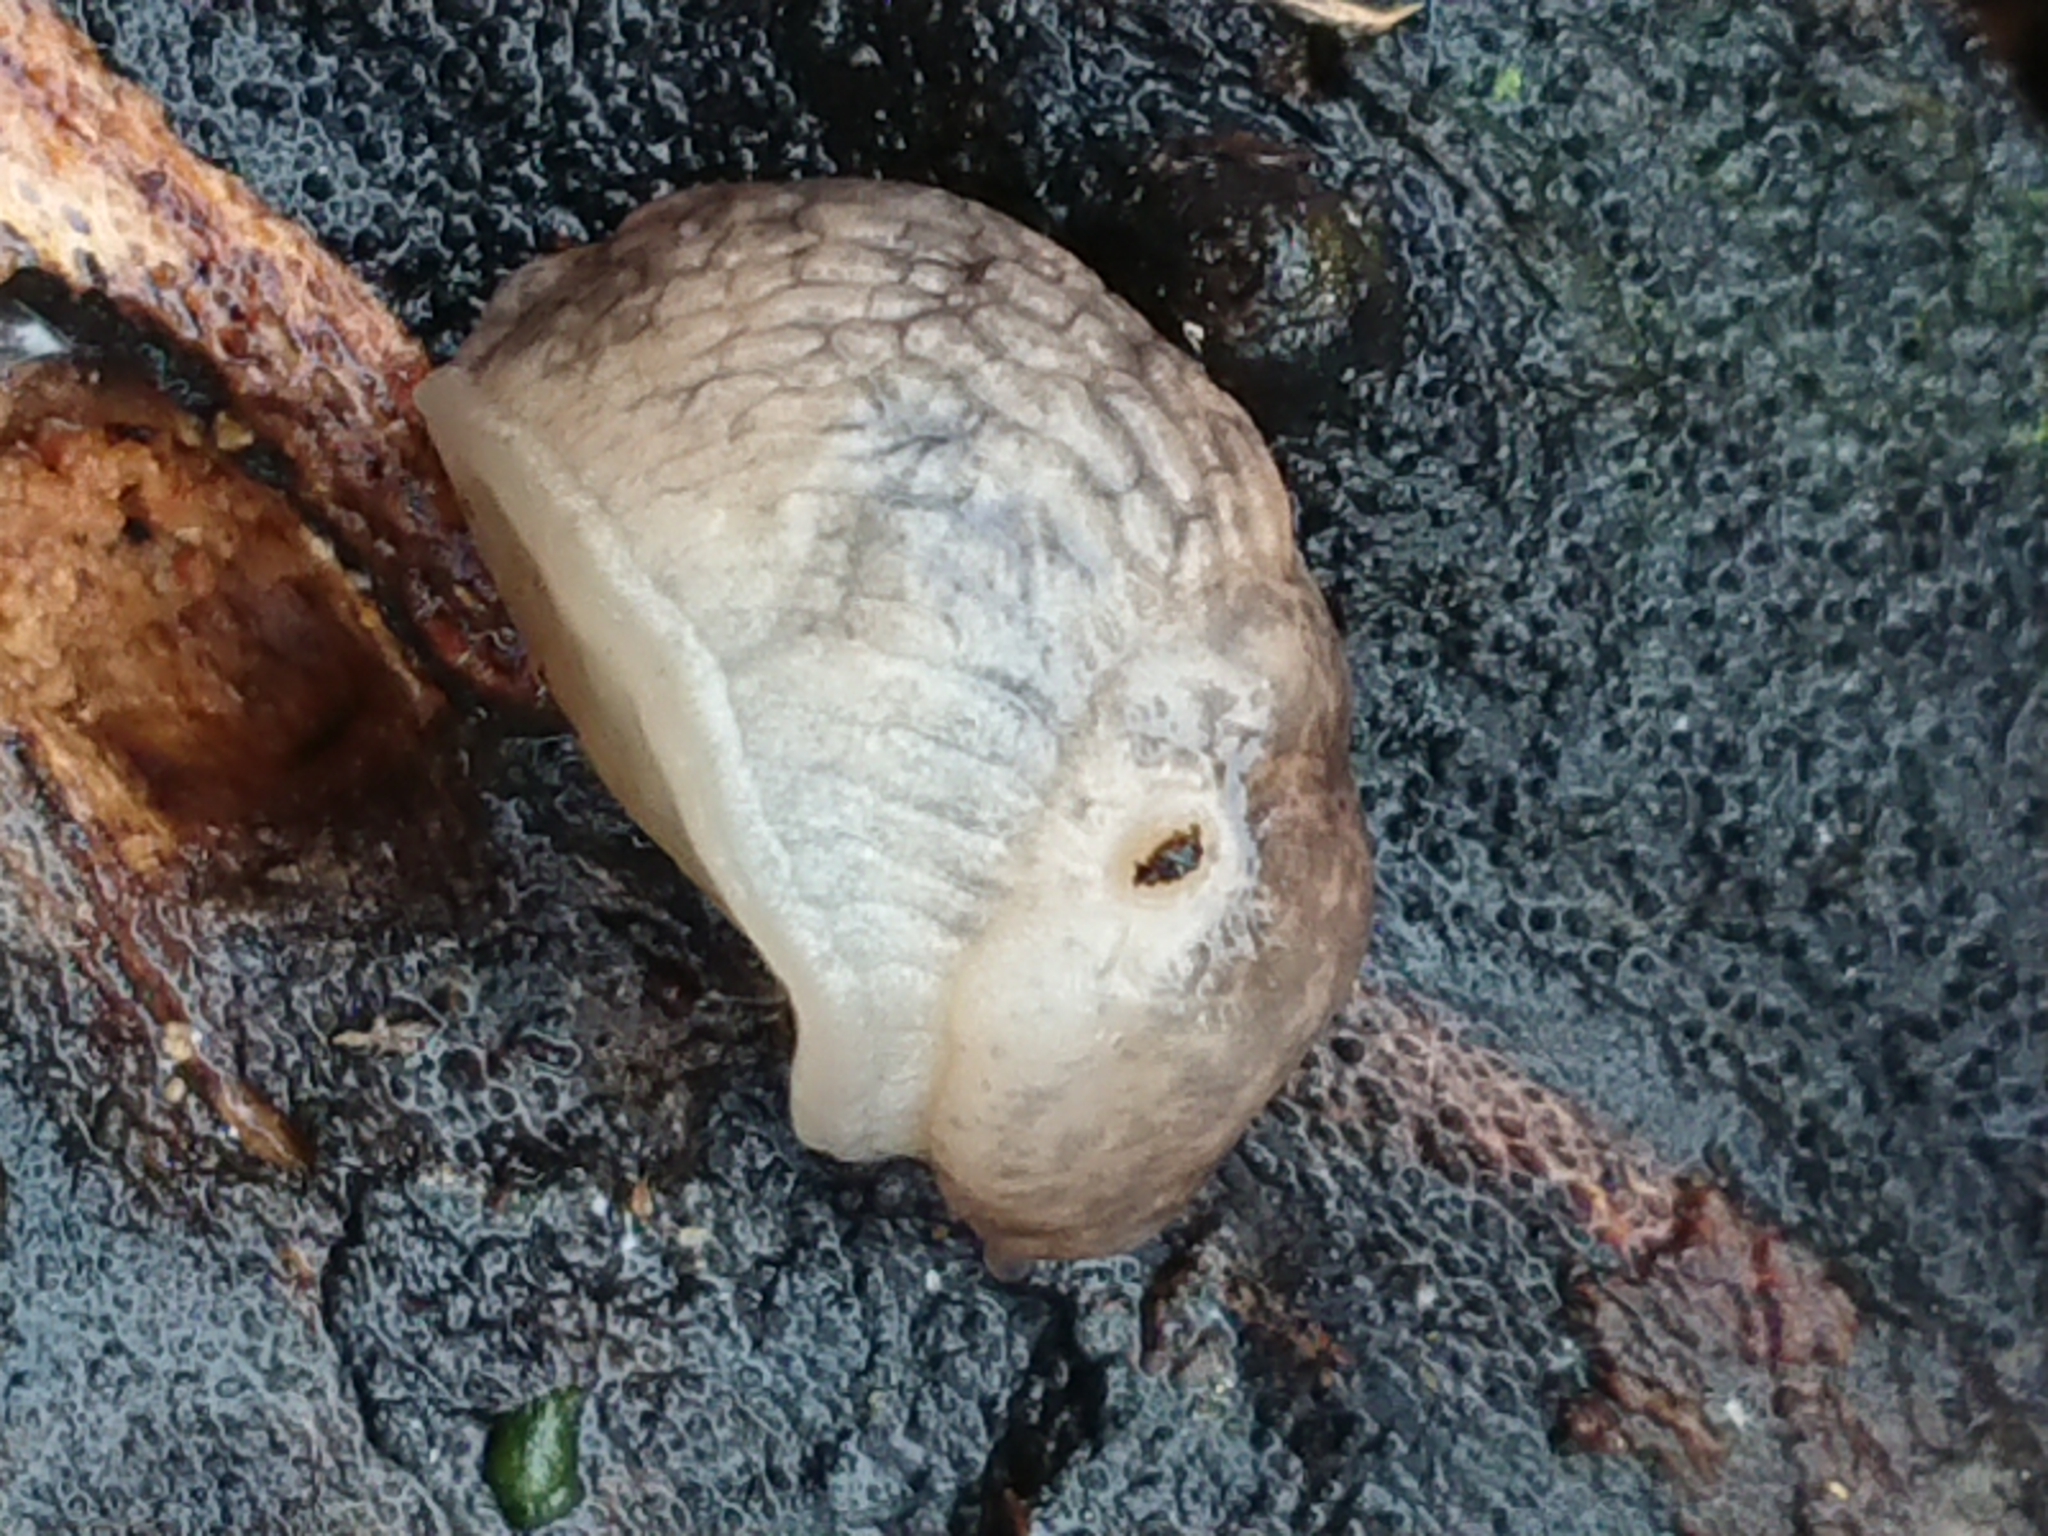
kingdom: Animalia
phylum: Mollusca
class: Gastropoda
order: Stylommatophora
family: Agriolimacidae
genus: Deroceras
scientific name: Deroceras reticulatum
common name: Gray field slug
